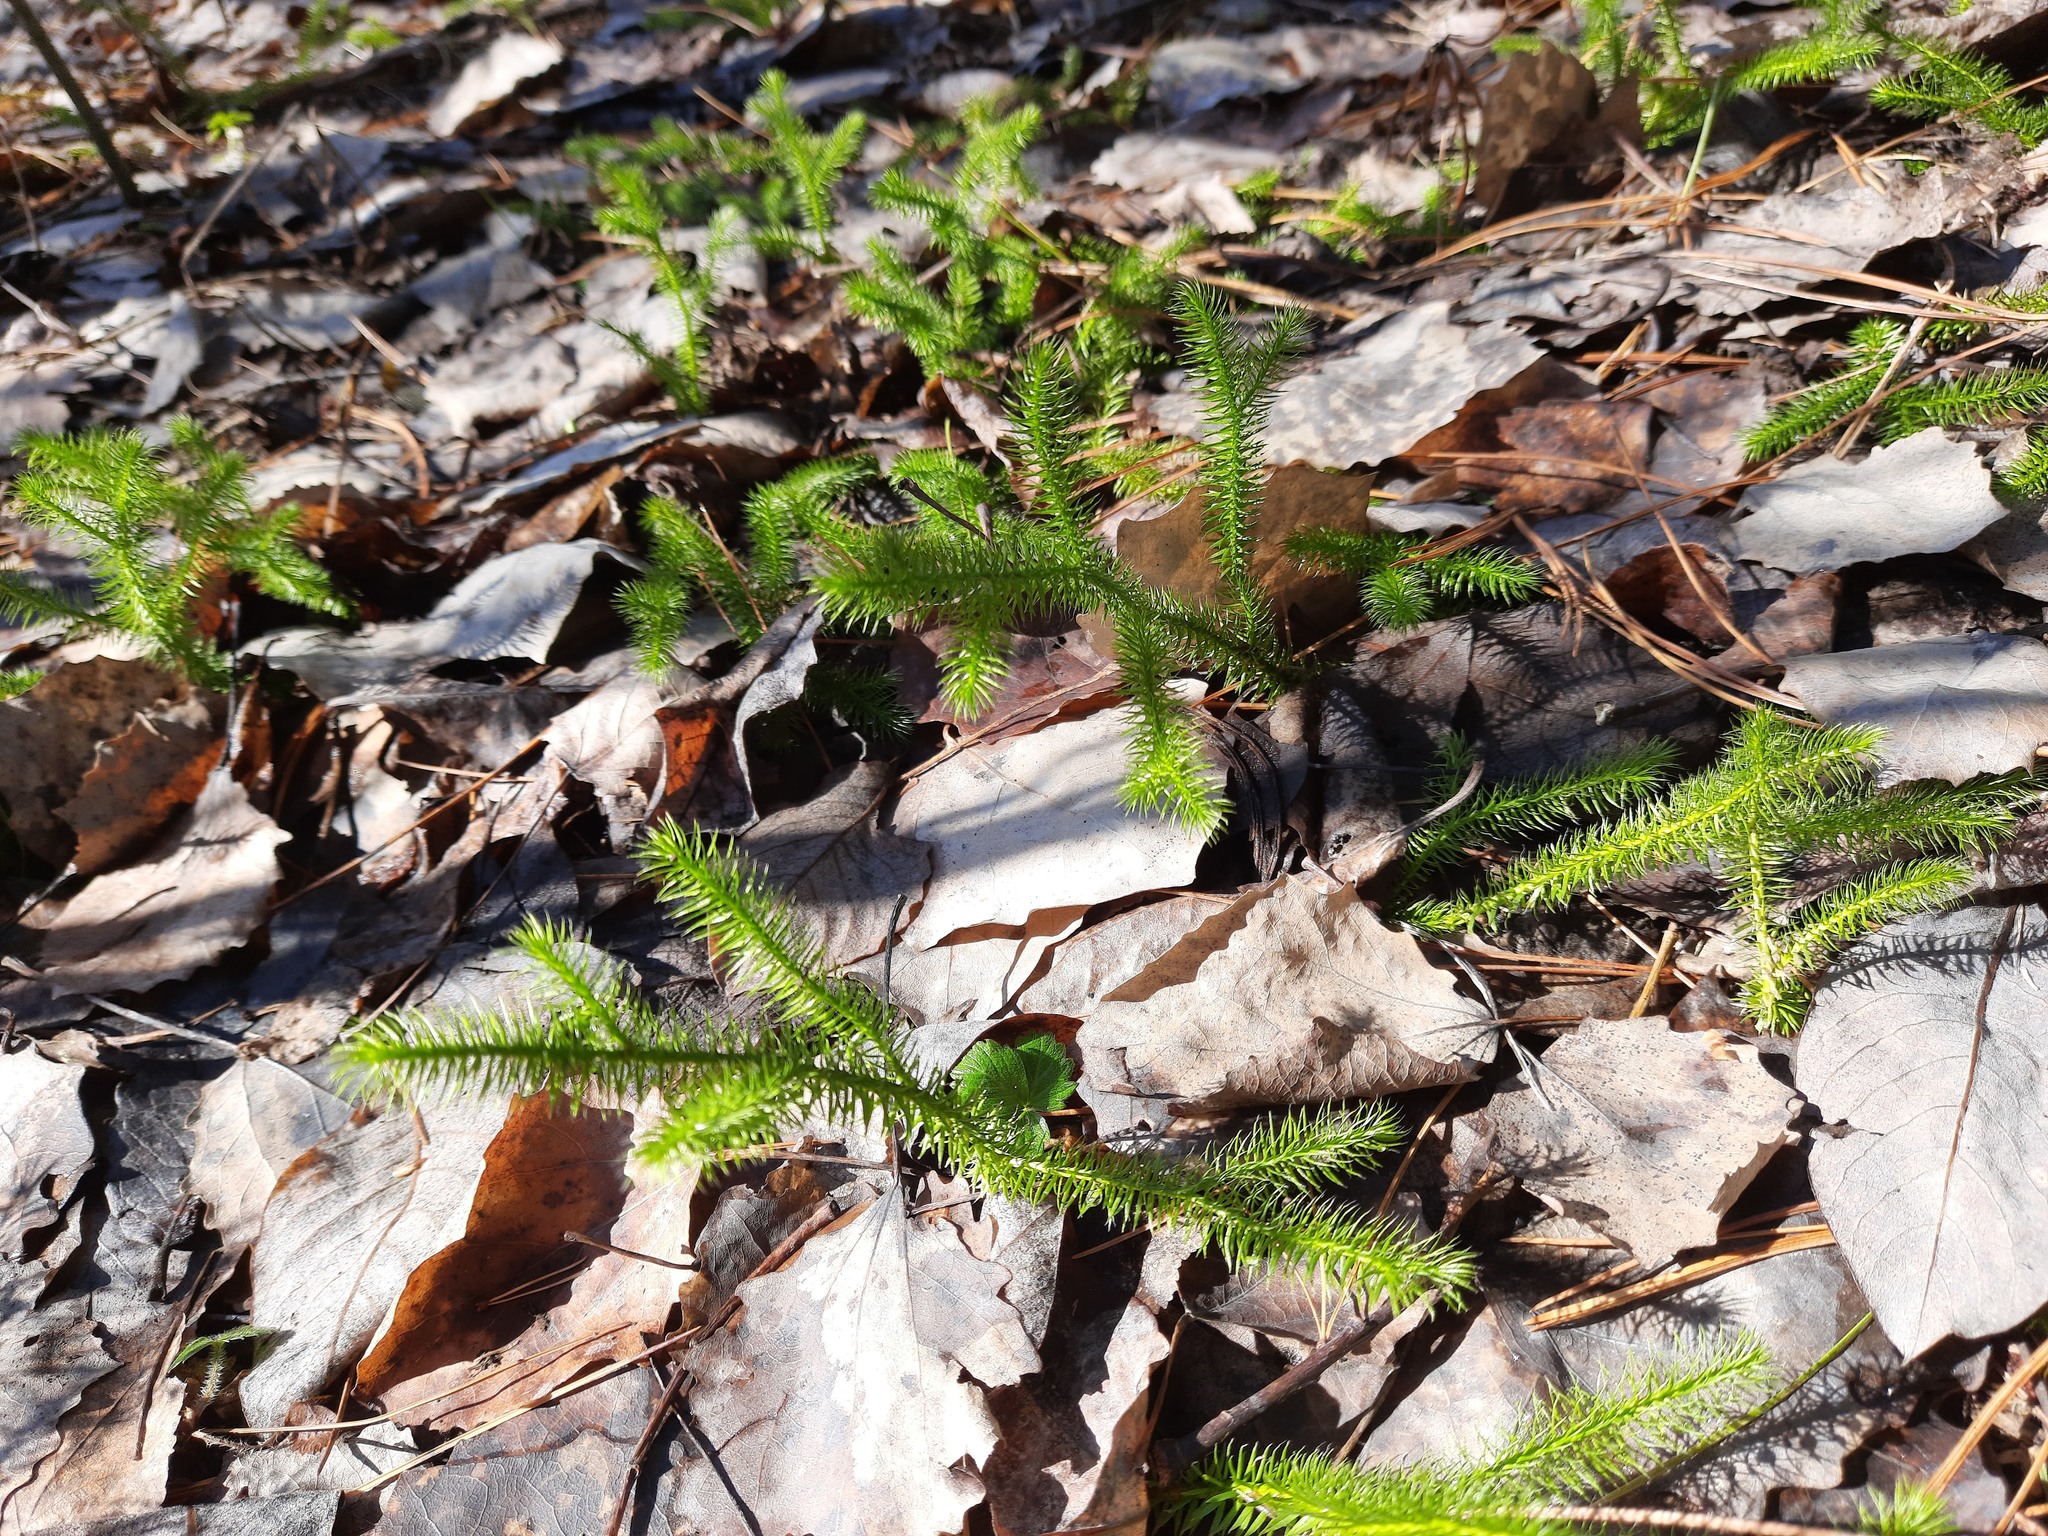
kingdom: Plantae
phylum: Tracheophyta
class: Lycopodiopsida
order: Lycopodiales
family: Lycopodiaceae
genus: Lycopodium
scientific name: Lycopodium clavatum
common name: Stag's-horn clubmoss
